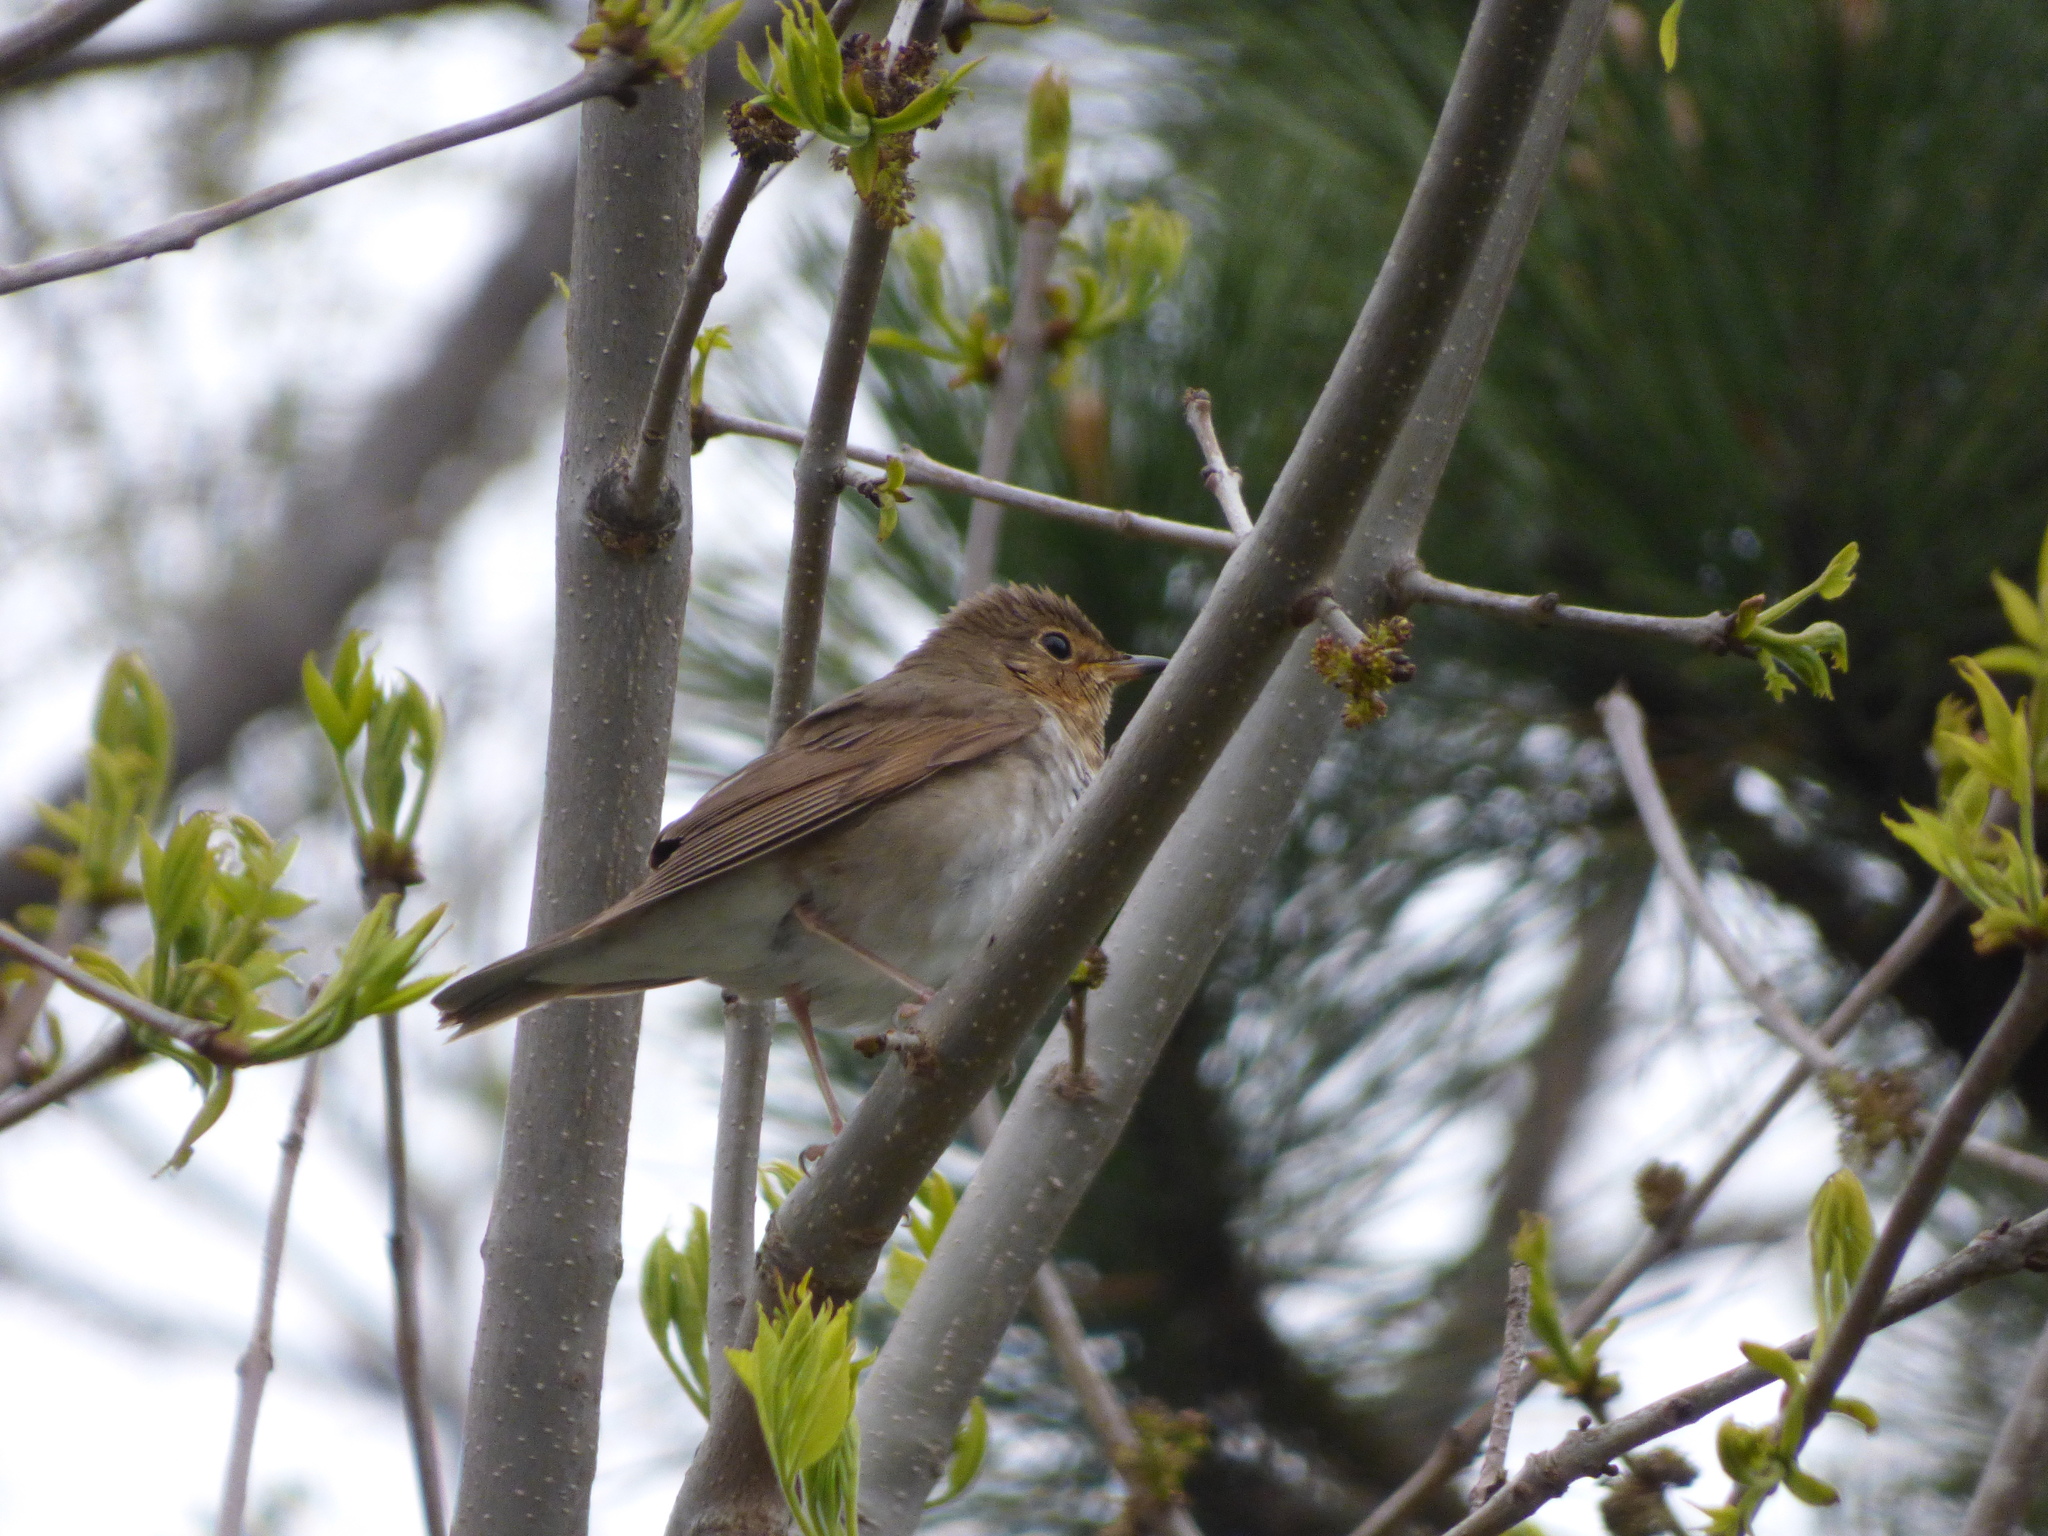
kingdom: Animalia
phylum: Chordata
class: Aves
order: Passeriformes
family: Turdidae
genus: Catharus
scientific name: Catharus ustulatus
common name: Swainson's thrush
